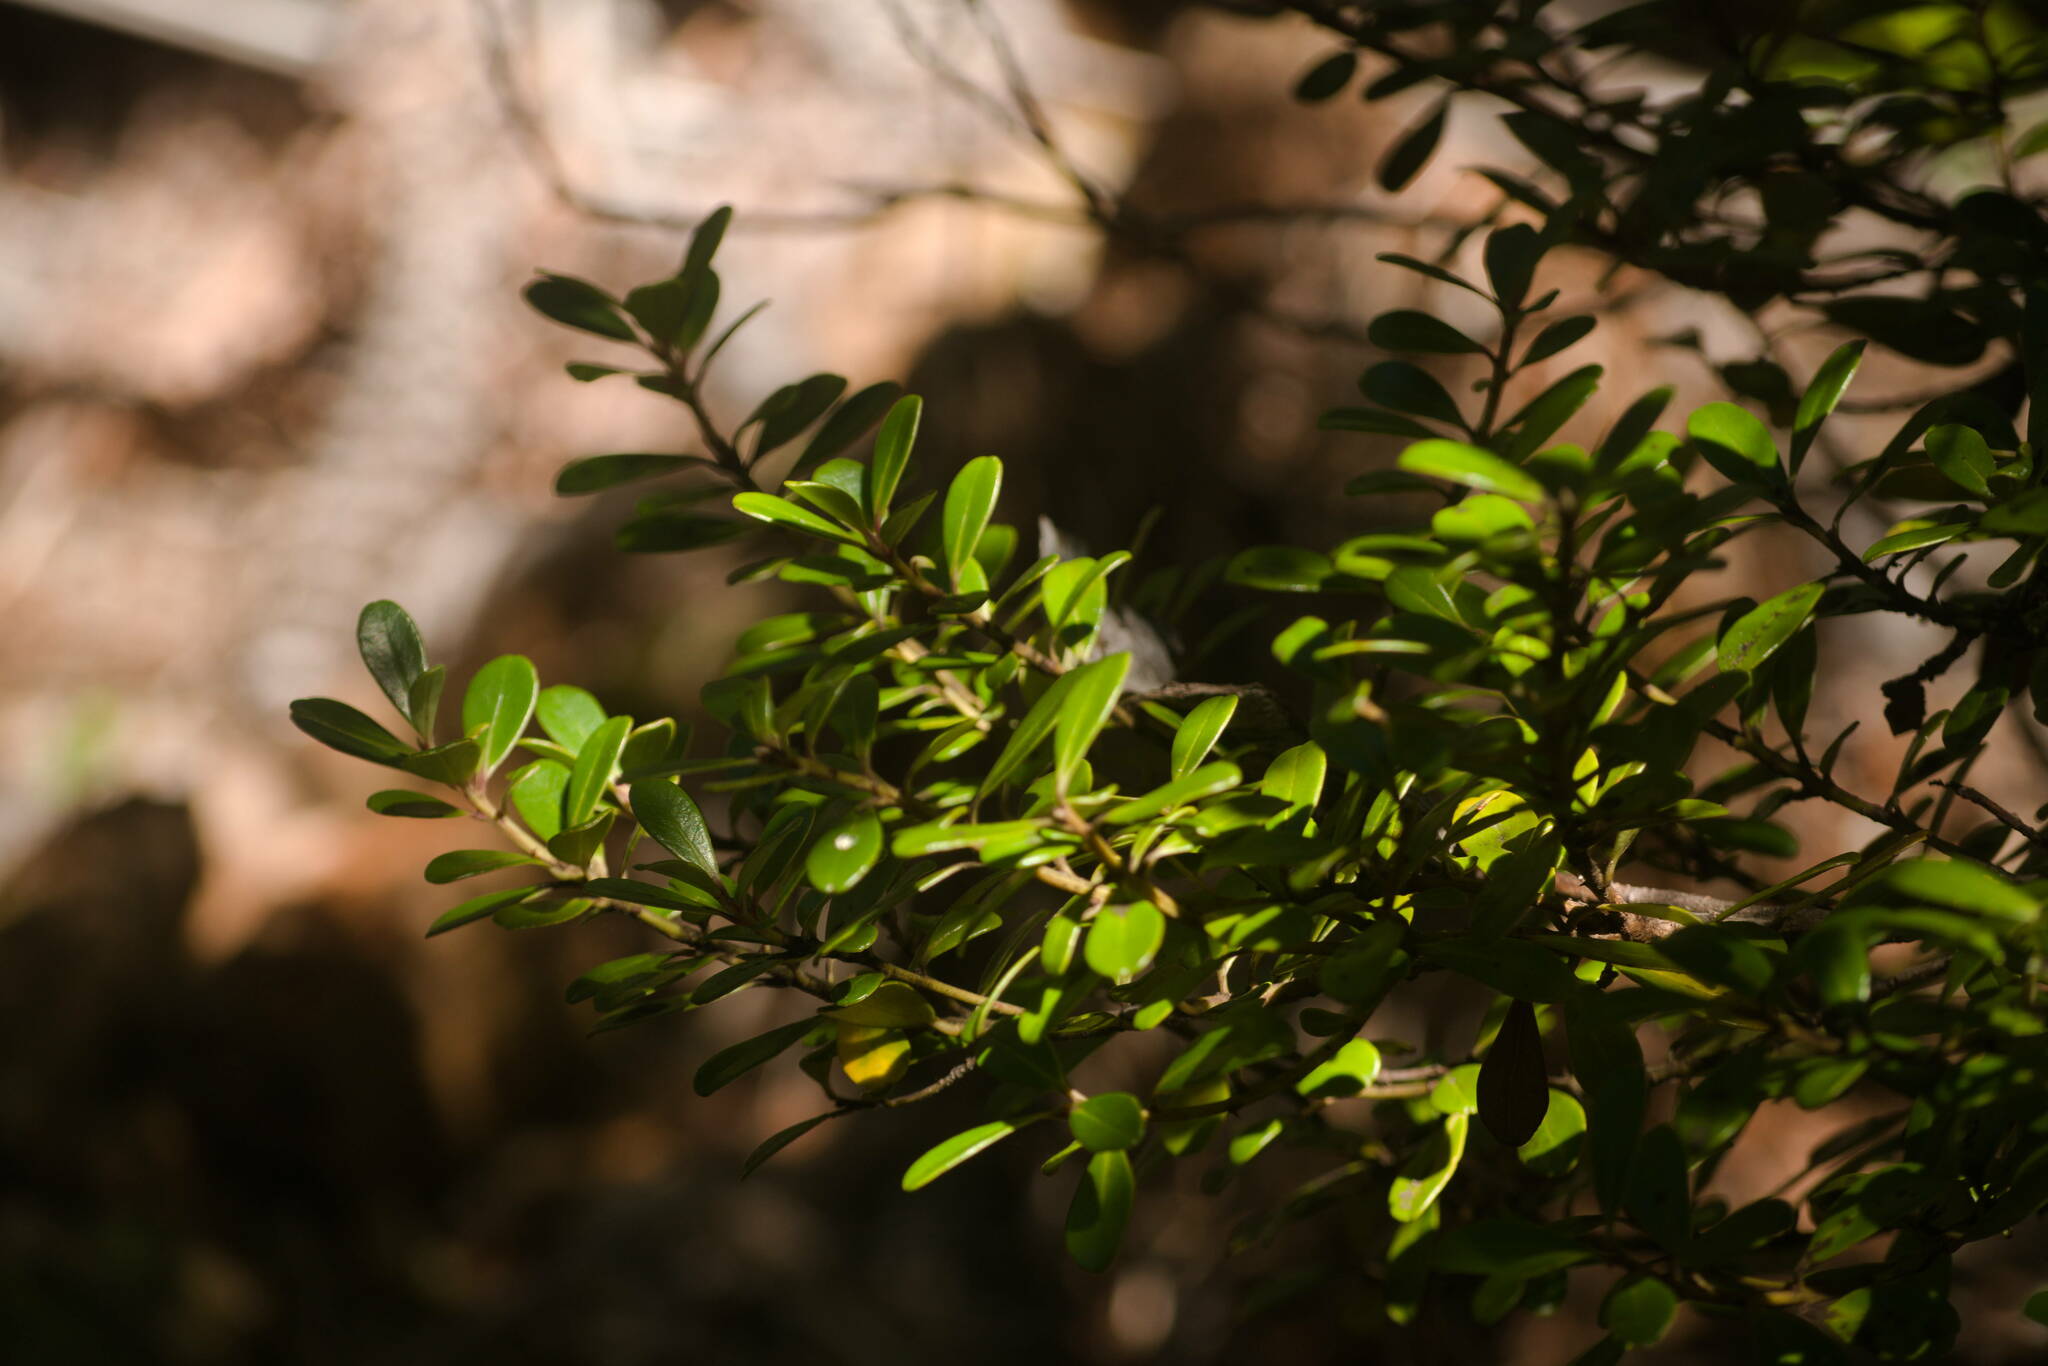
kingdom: Plantae
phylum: Tracheophyta
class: Magnoliopsida
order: Ericales
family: Primulaceae
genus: Myrsine
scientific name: Myrsine sandwicensis
